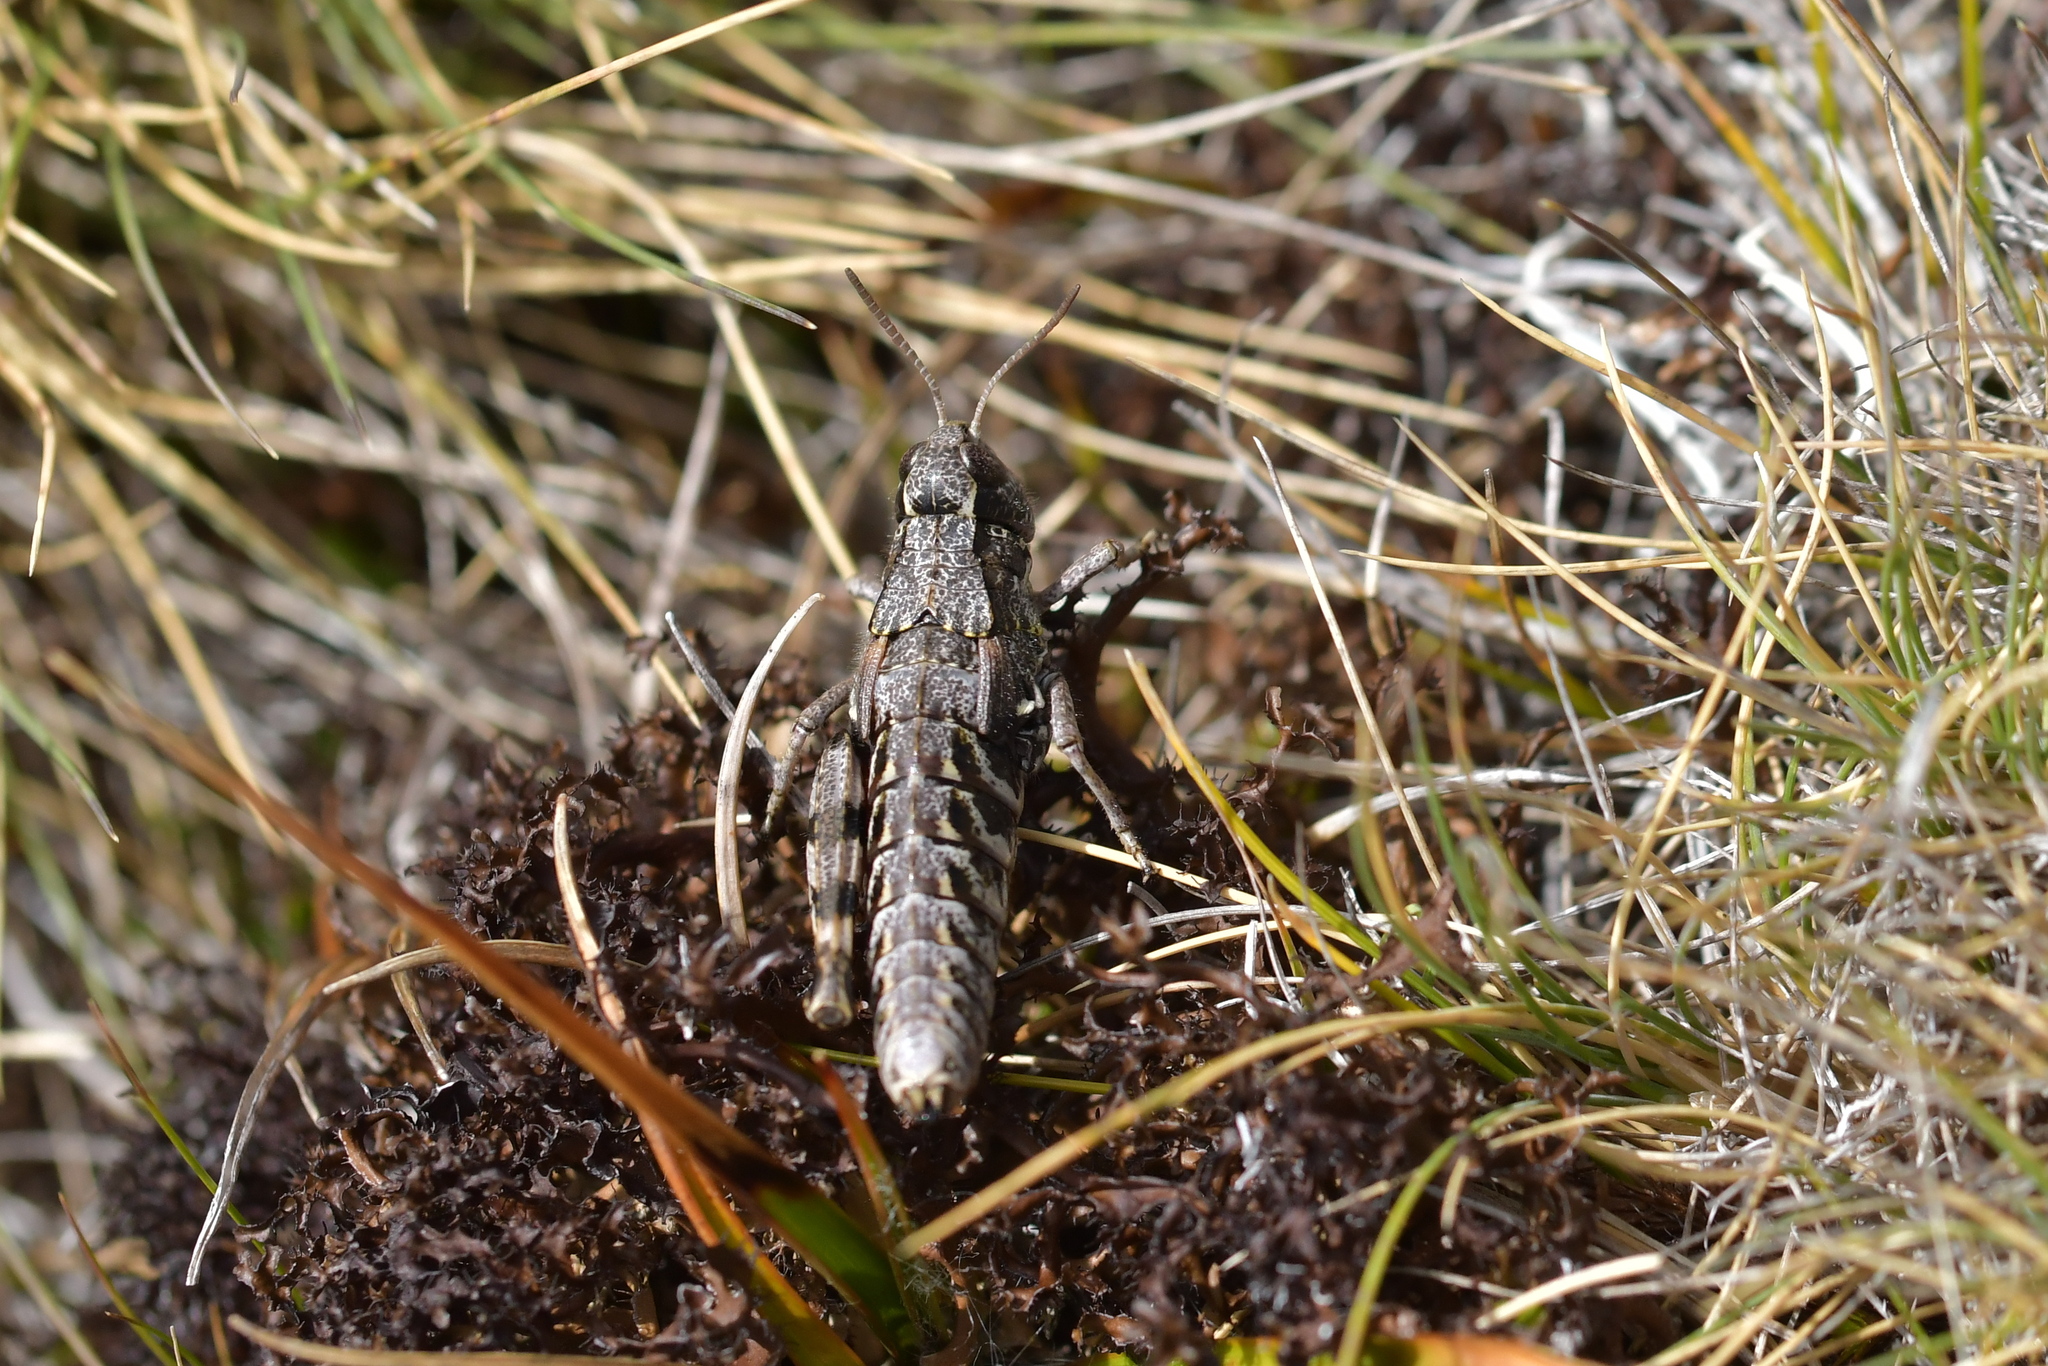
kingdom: Animalia
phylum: Arthropoda
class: Insecta
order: Orthoptera
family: Acrididae
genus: Sigaus
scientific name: Sigaus australis
